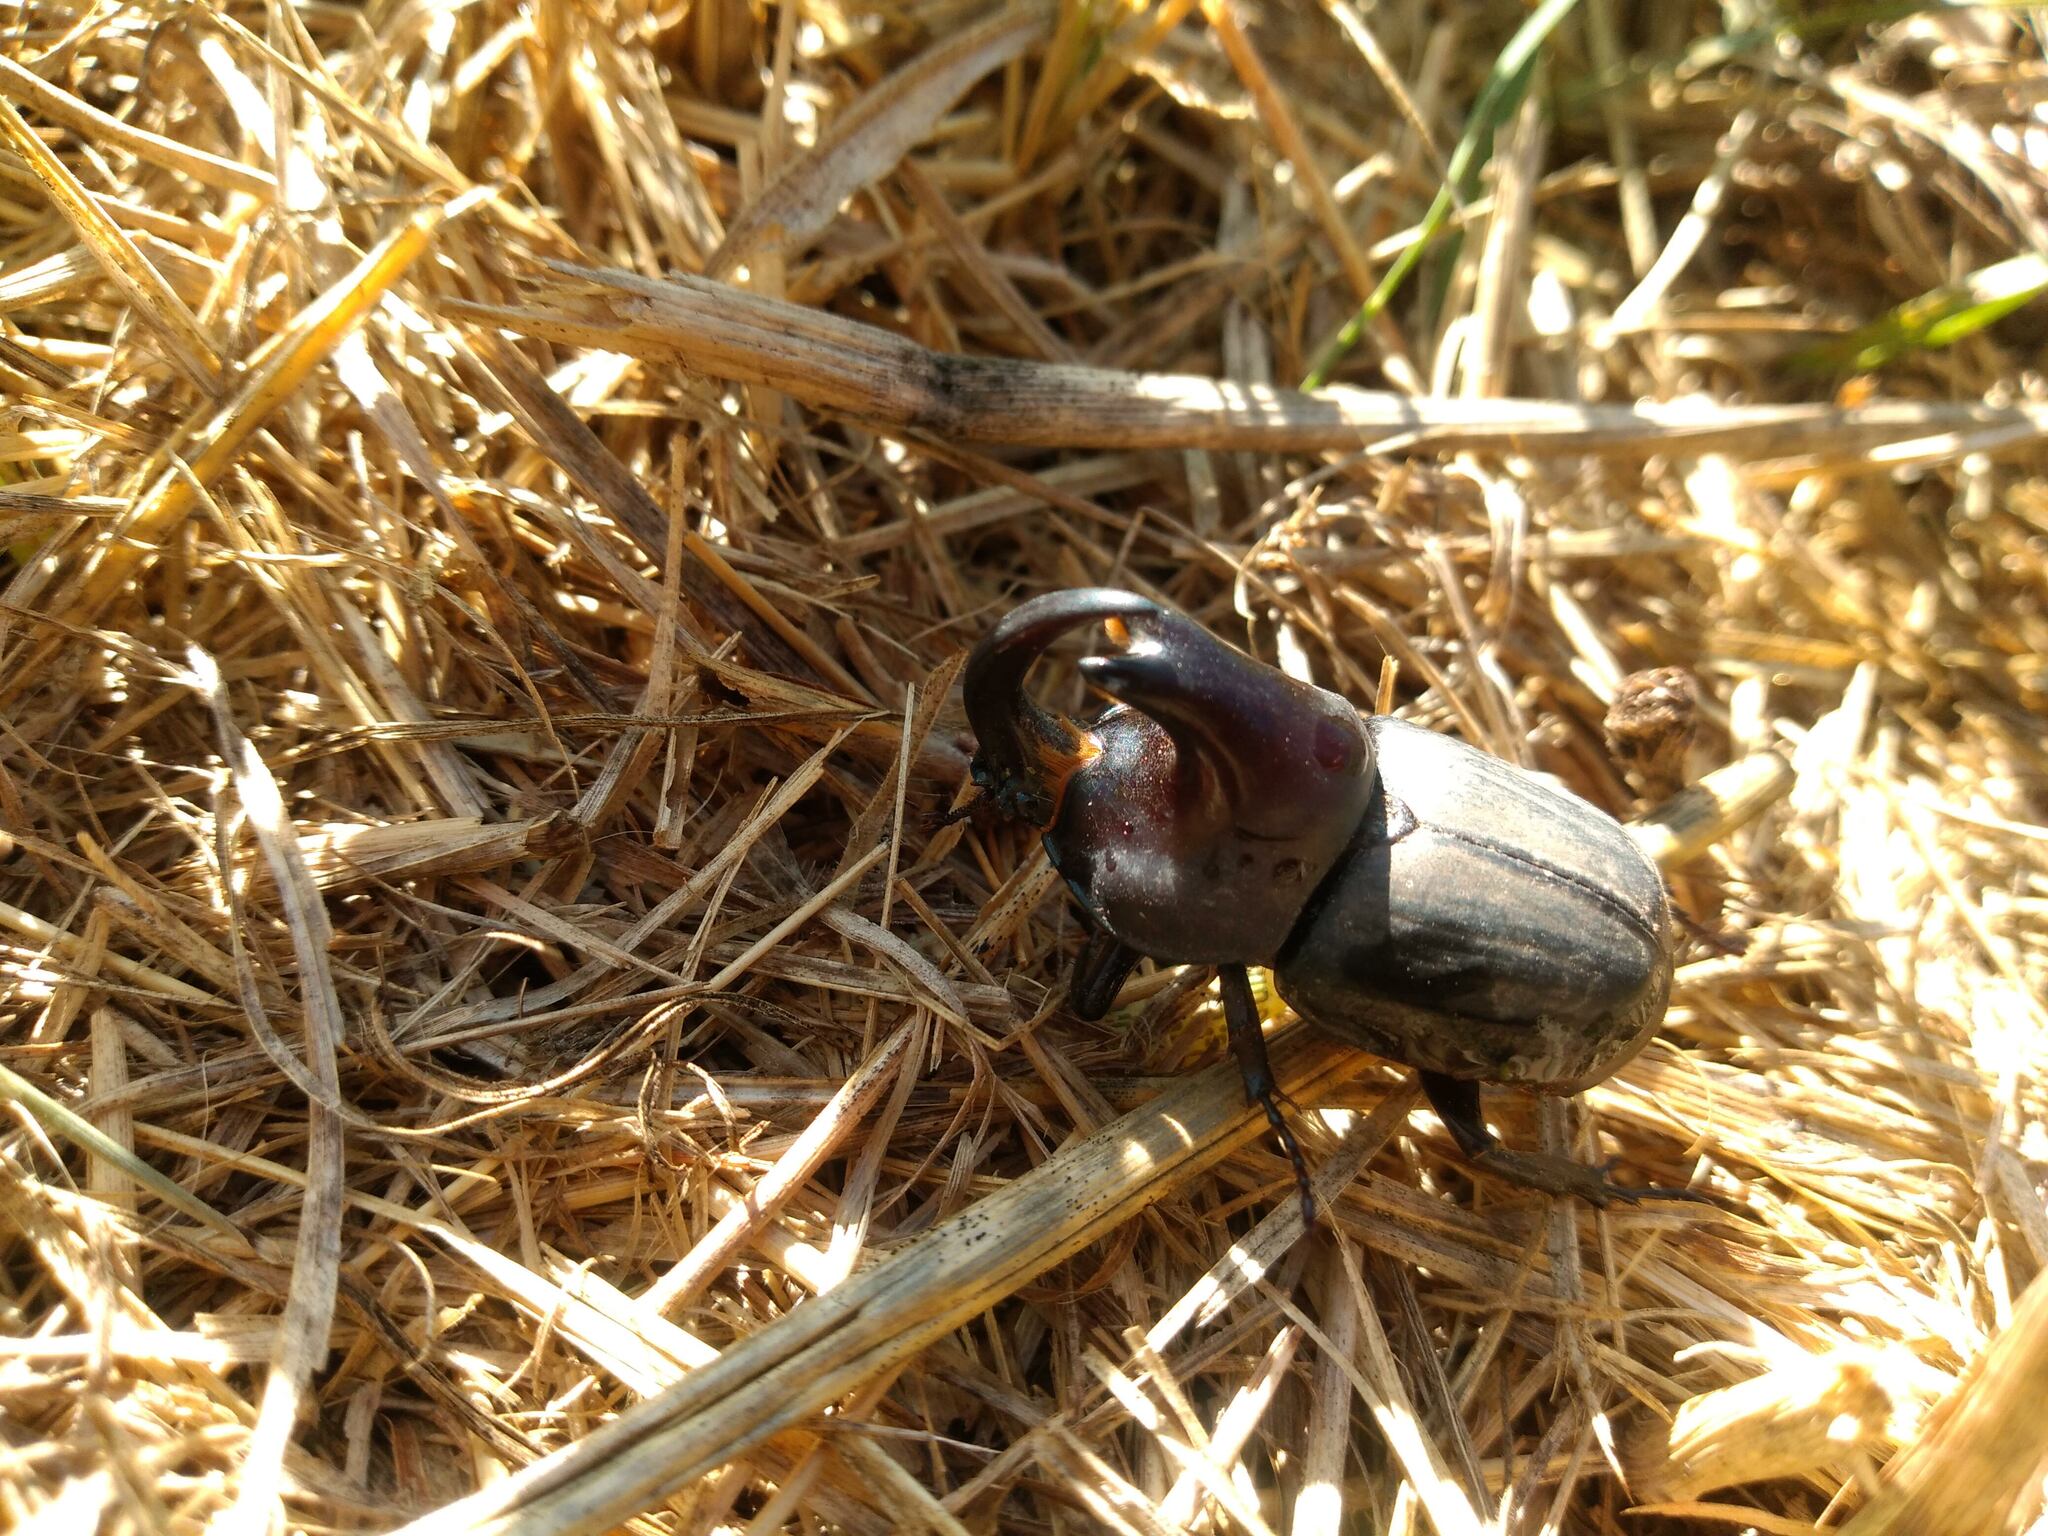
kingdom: Animalia
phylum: Arthropoda
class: Insecta
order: Coleoptera
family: Scarabaeidae
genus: Diloboderus
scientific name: Diloboderus abderus
